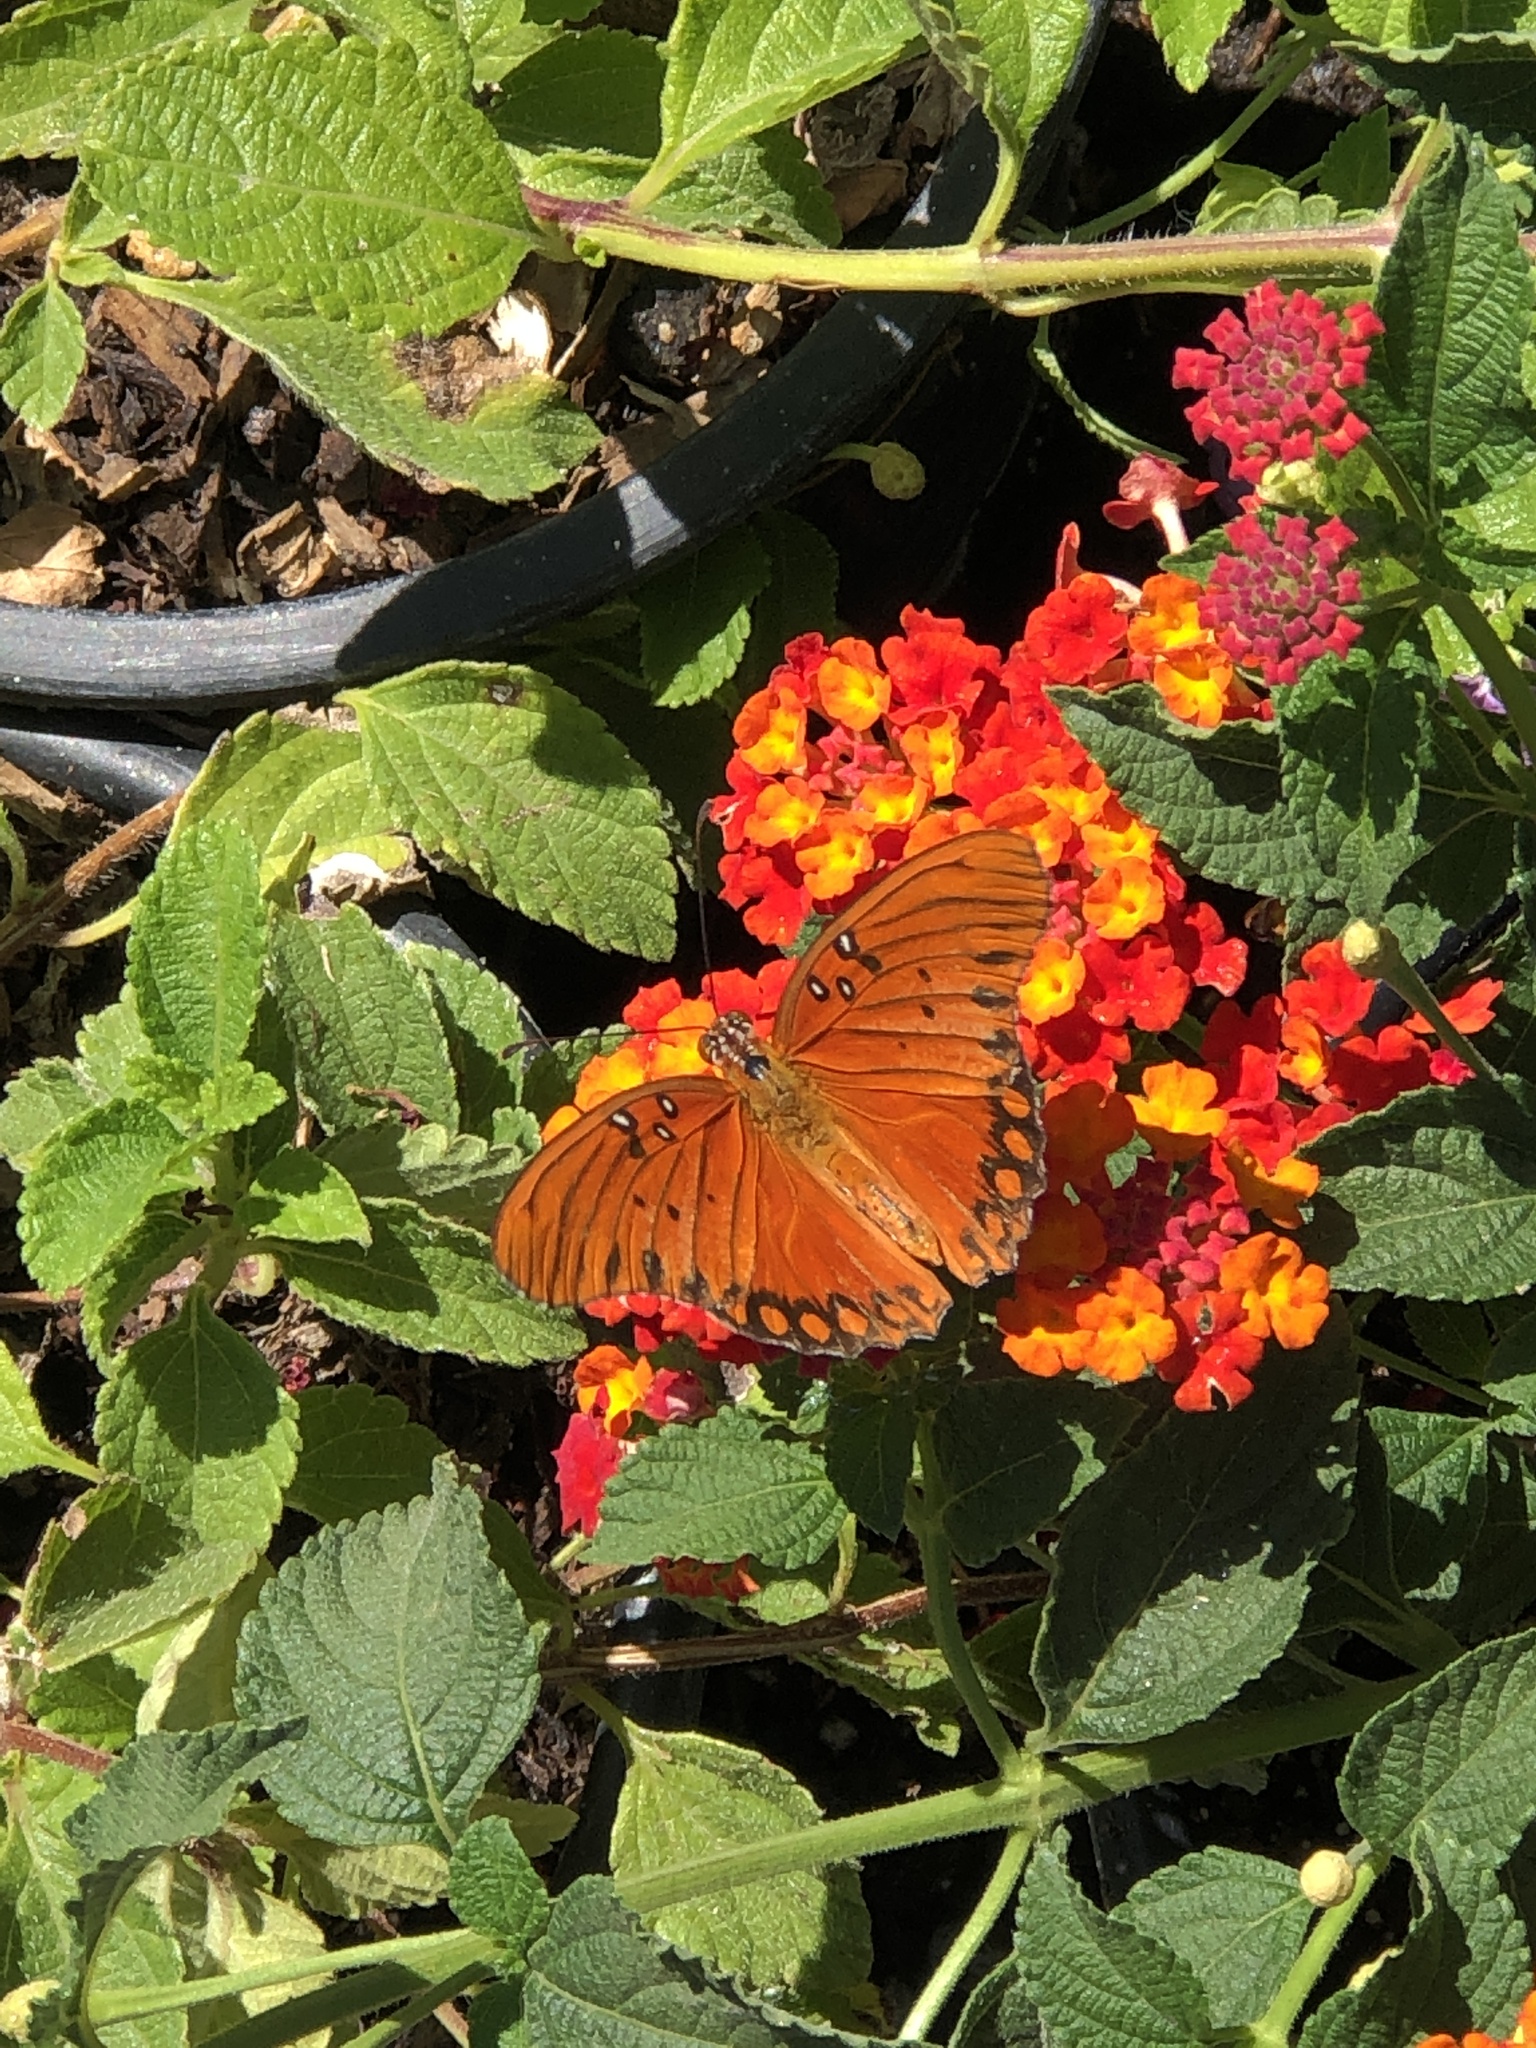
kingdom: Animalia
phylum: Arthropoda
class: Insecta
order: Lepidoptera
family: Nymphalidae
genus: Dione
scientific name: Dione vanillae
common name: Gulf fritillary
